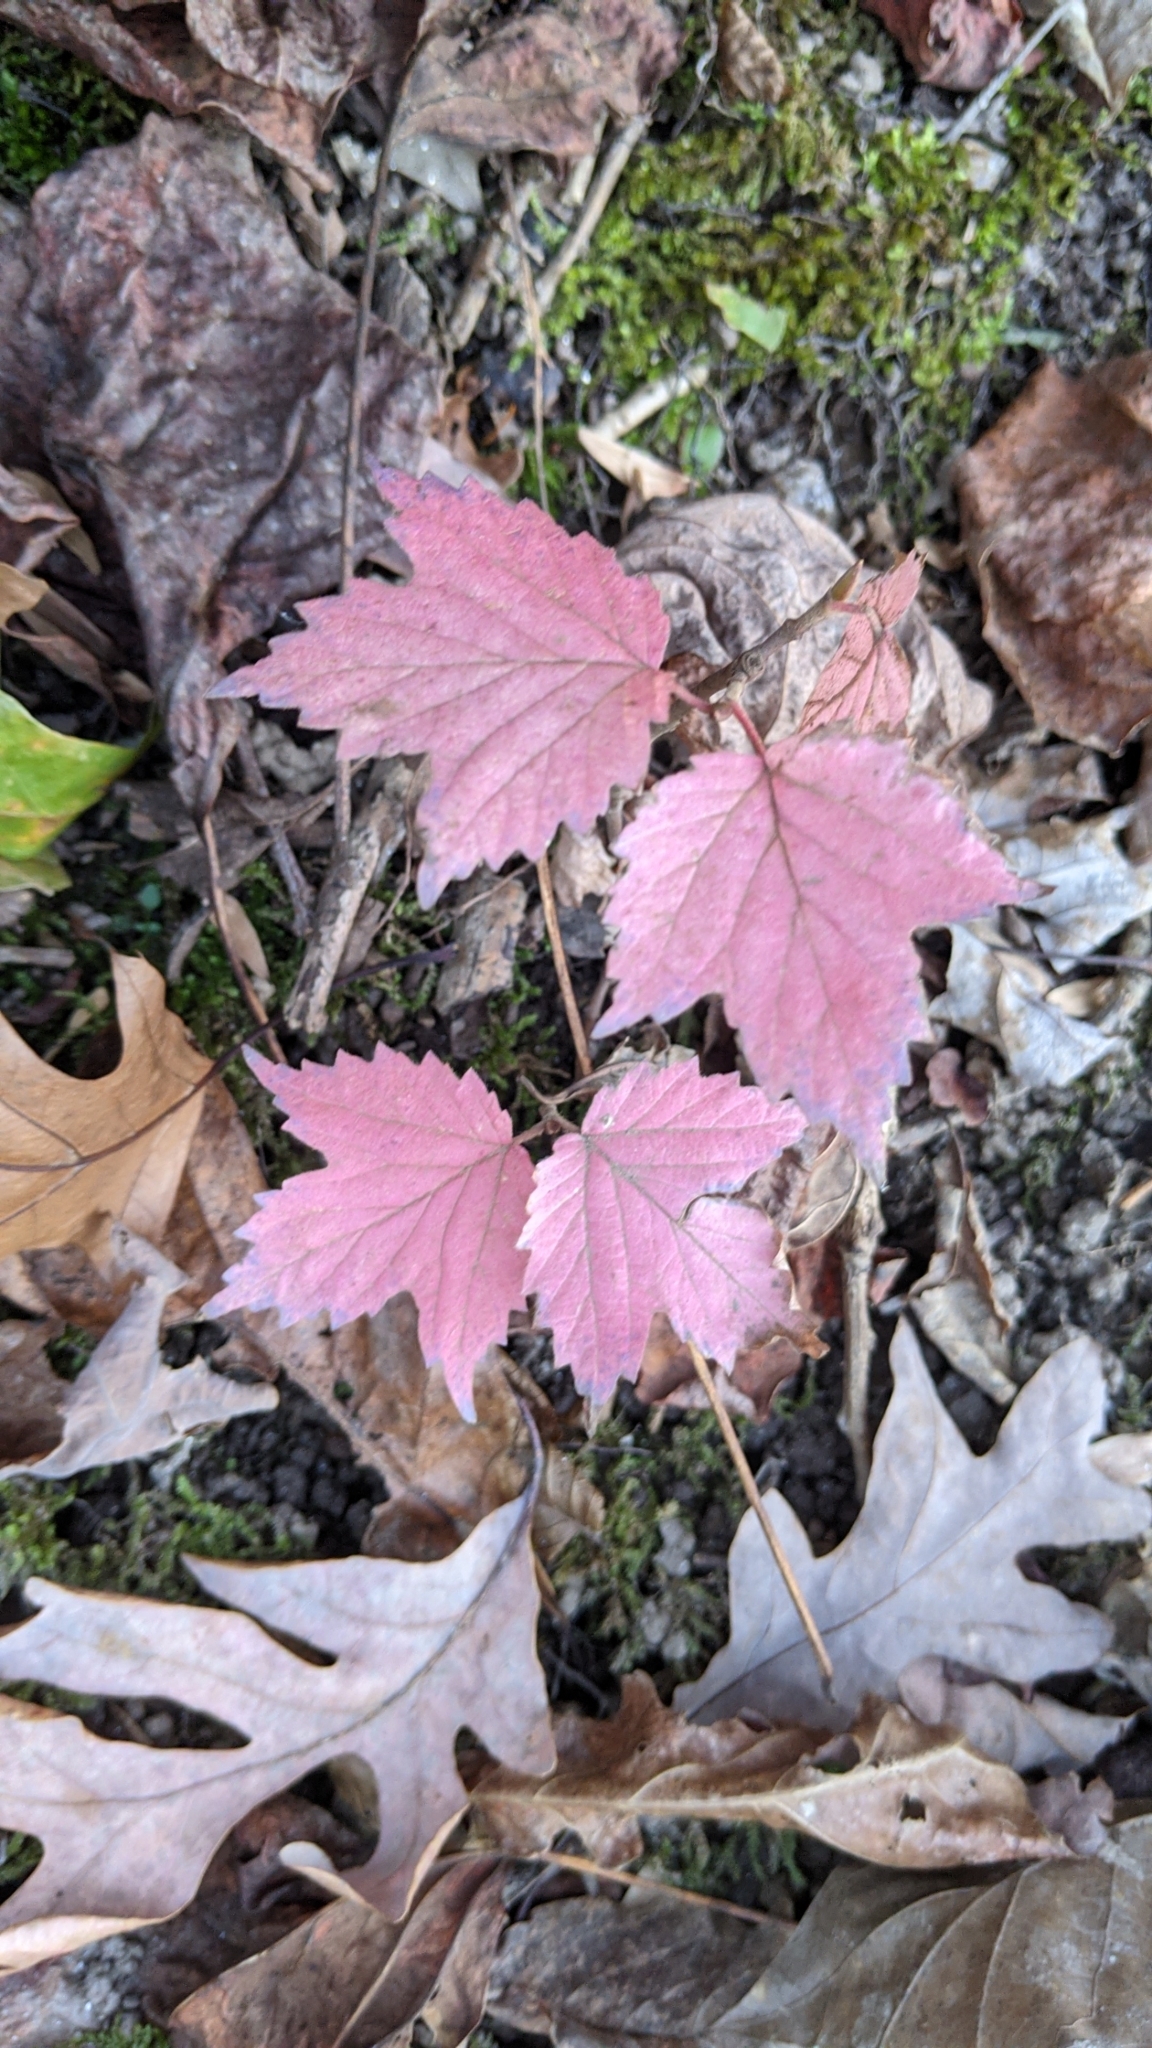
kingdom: Plantae
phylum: Tracheophyta
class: Magnoliopsida
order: Dipsacales
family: Viburnaceae
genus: Viburnum
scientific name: Viburnum acerifolium
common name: Dockmackie
